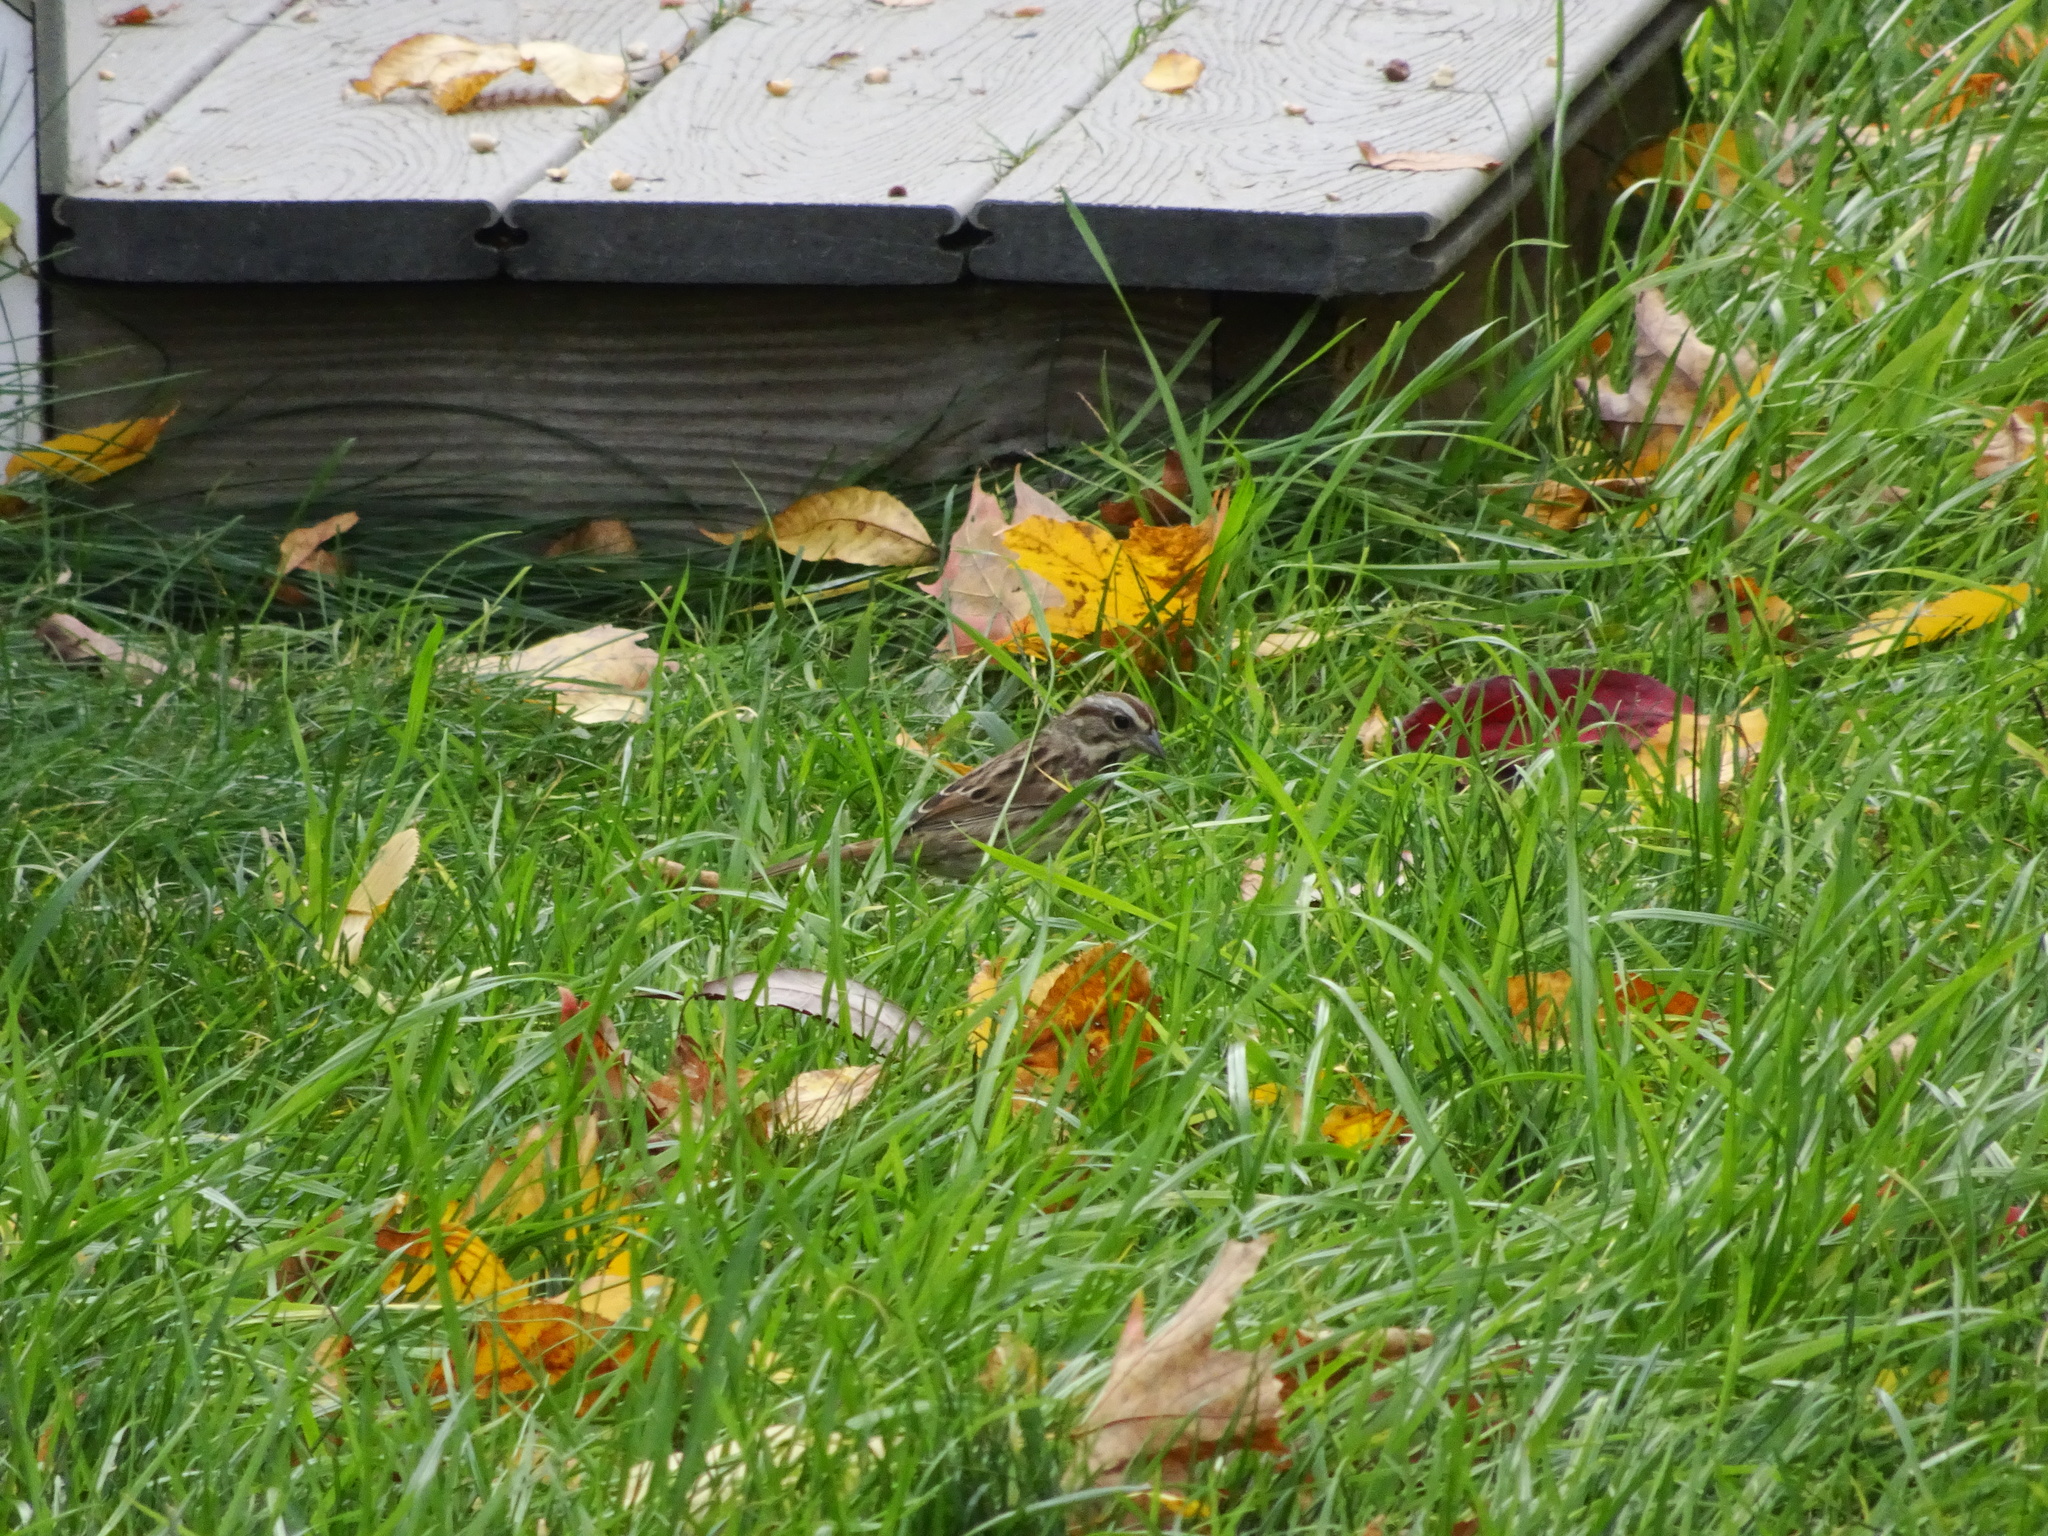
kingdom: Animalia
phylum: Chordata
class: Aves
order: Passeriformes
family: Passerellidae
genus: Melospiza
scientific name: Melospiza melodia
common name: Song sparrow
